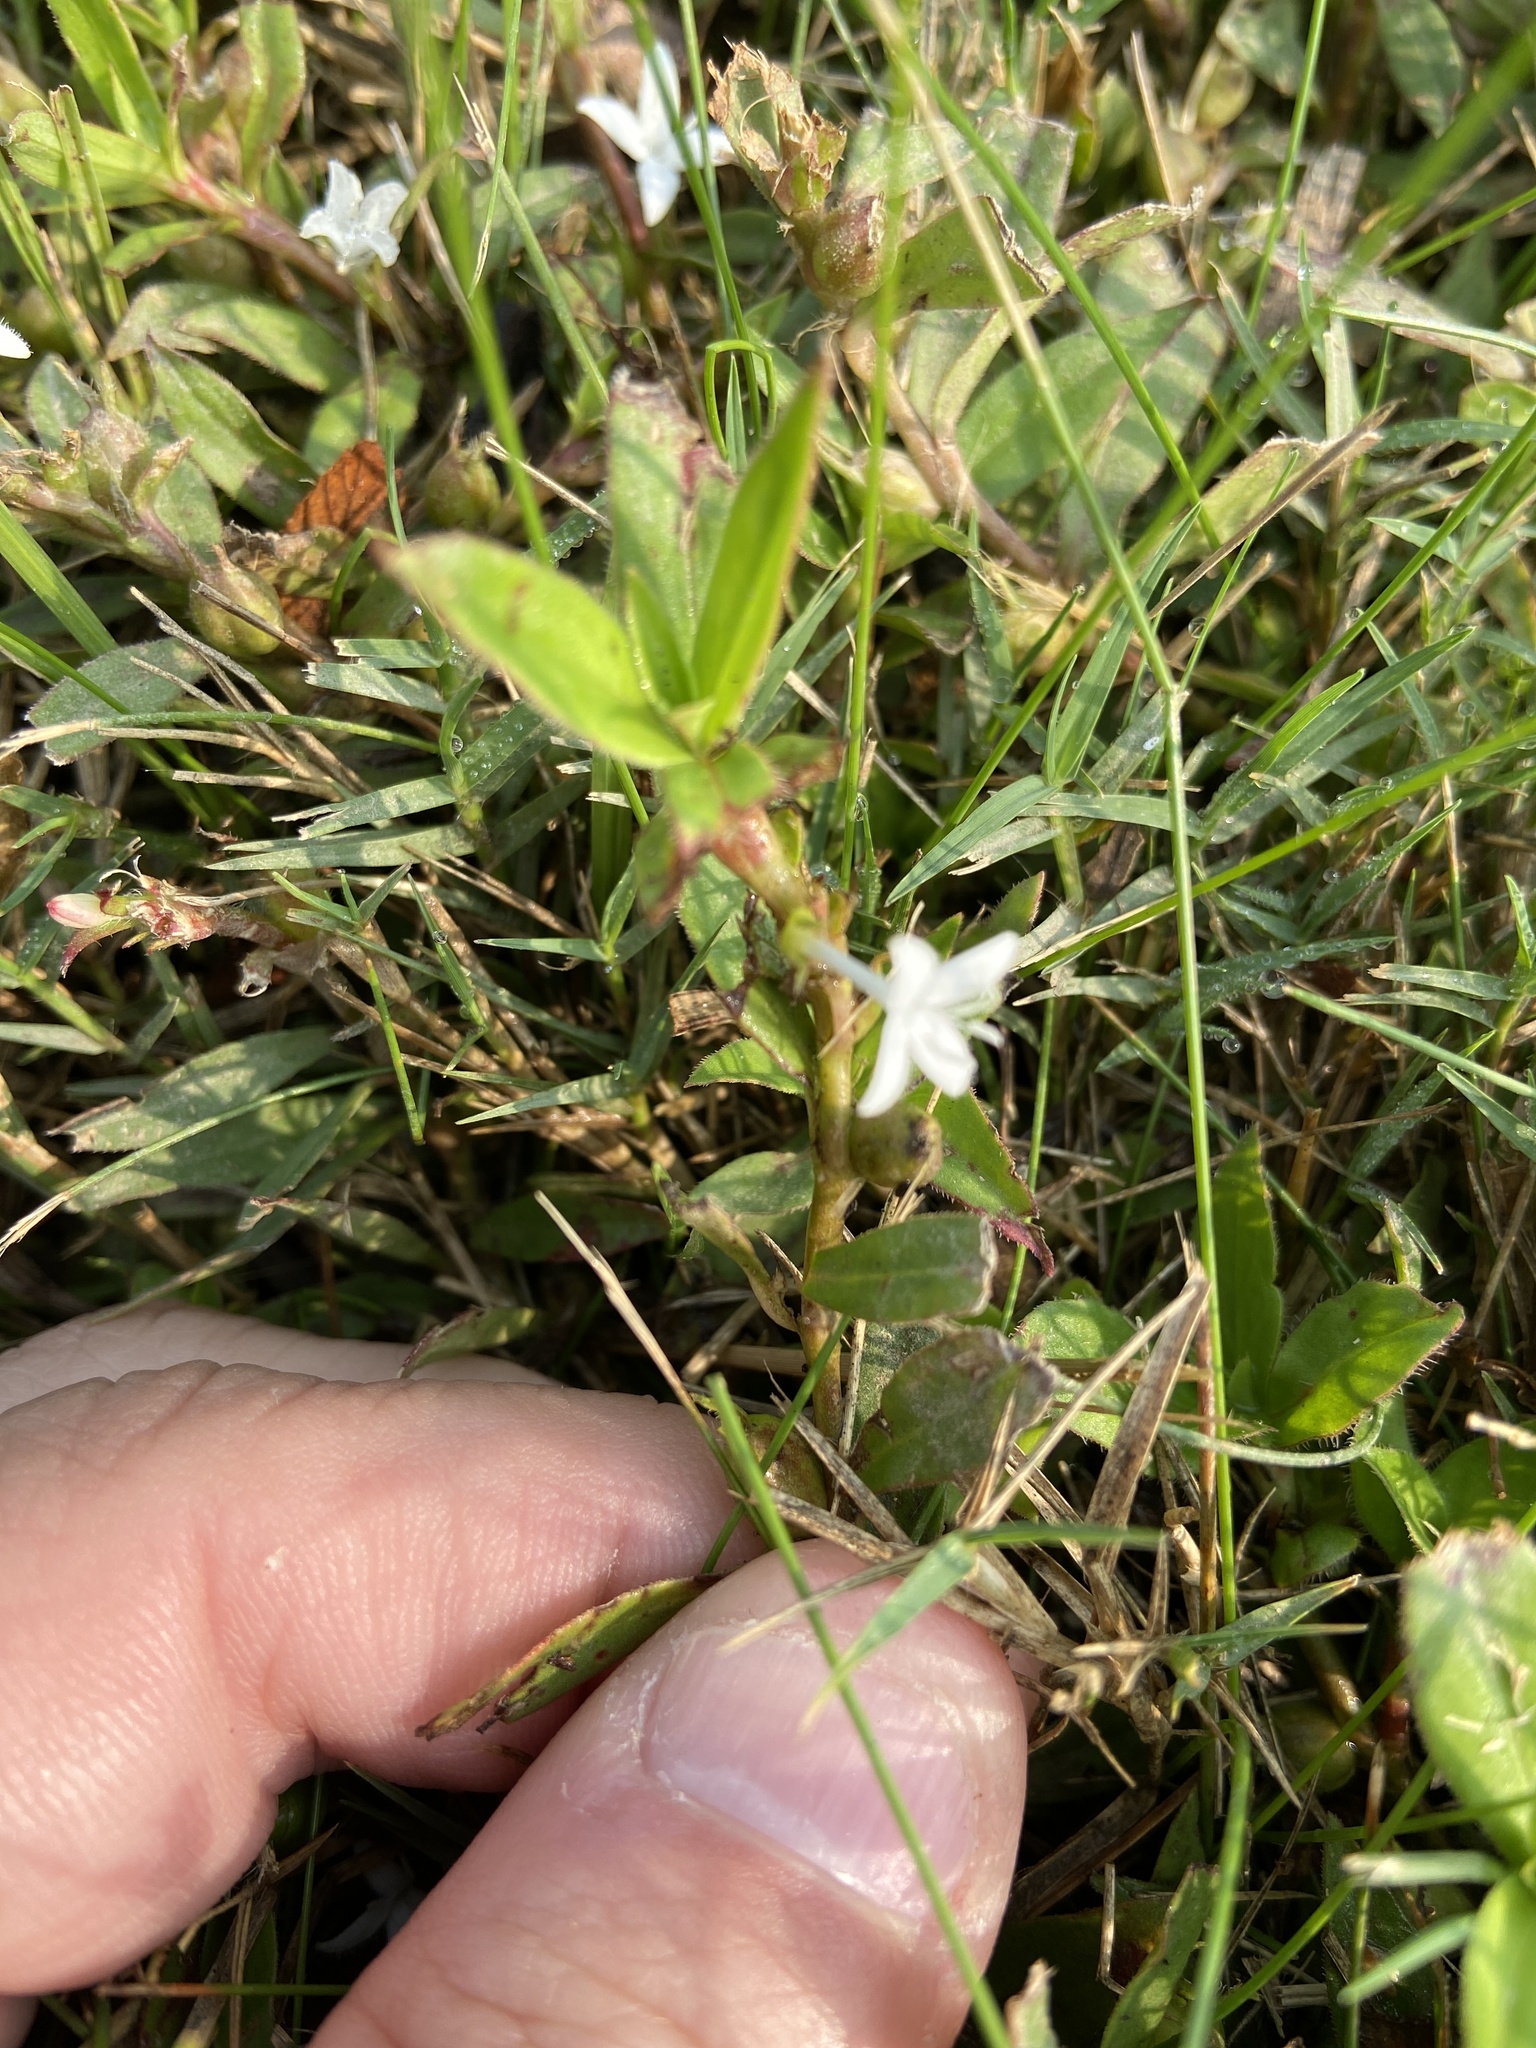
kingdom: Plantae
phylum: Tracheophyta
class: Magnoliopsida
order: Gentianales
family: Rubiaceae
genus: Diodia
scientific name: Diodia virginiana
